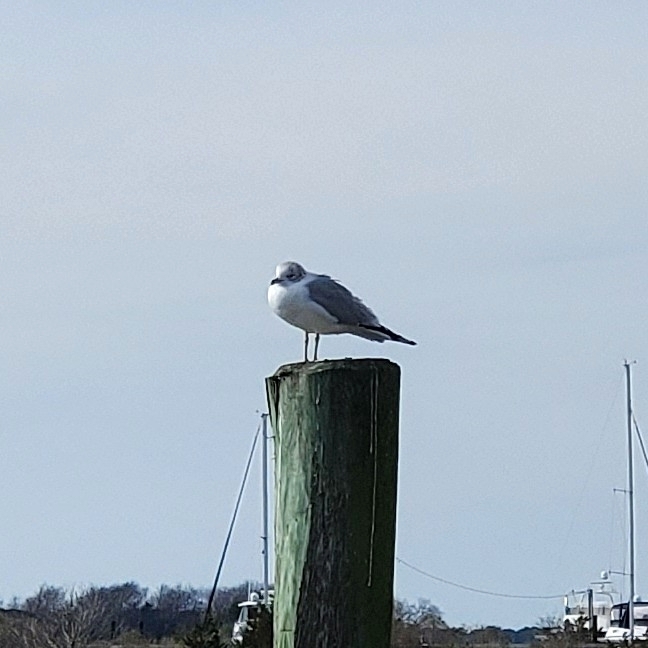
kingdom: Animalia
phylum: Chordata
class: Aves
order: Charadriiformes
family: Laridae
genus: Leucophaeus
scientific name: Leucophaeus atricilla
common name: Laughing gull
